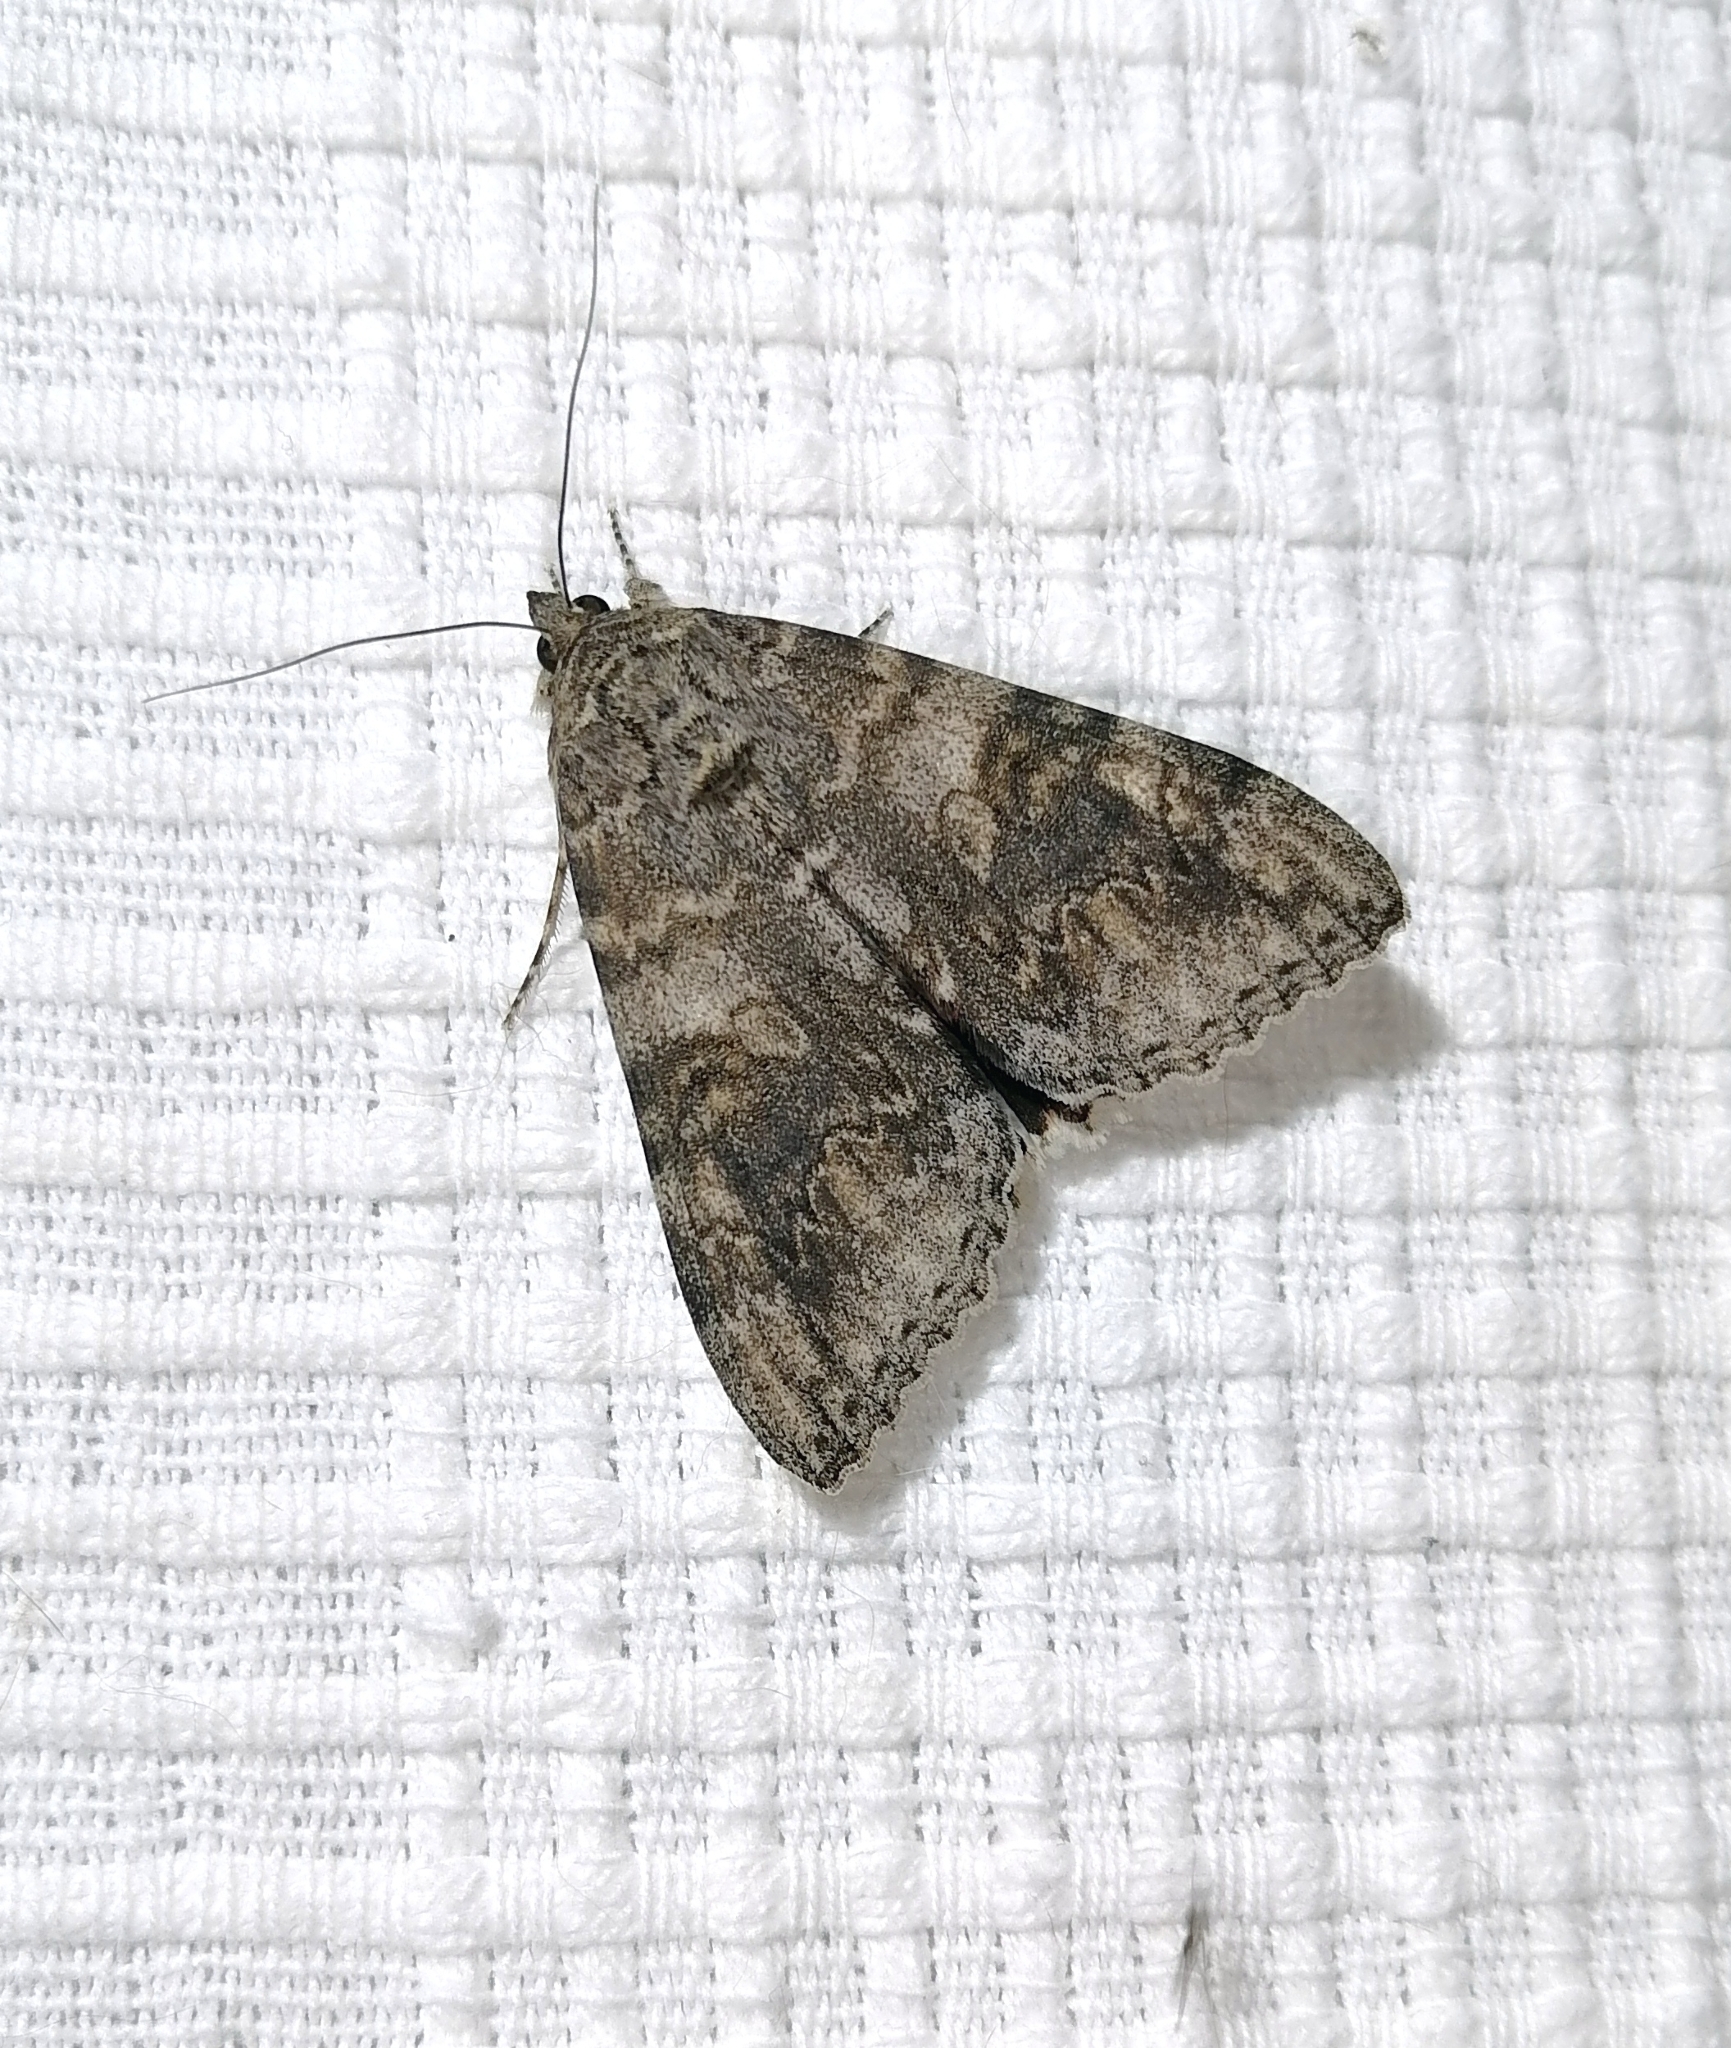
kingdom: Animalia
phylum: Arthropoda
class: Insecta
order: Lepidoptera
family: Erebidae
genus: Catocala
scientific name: Catocala nupta
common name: Red underwing
